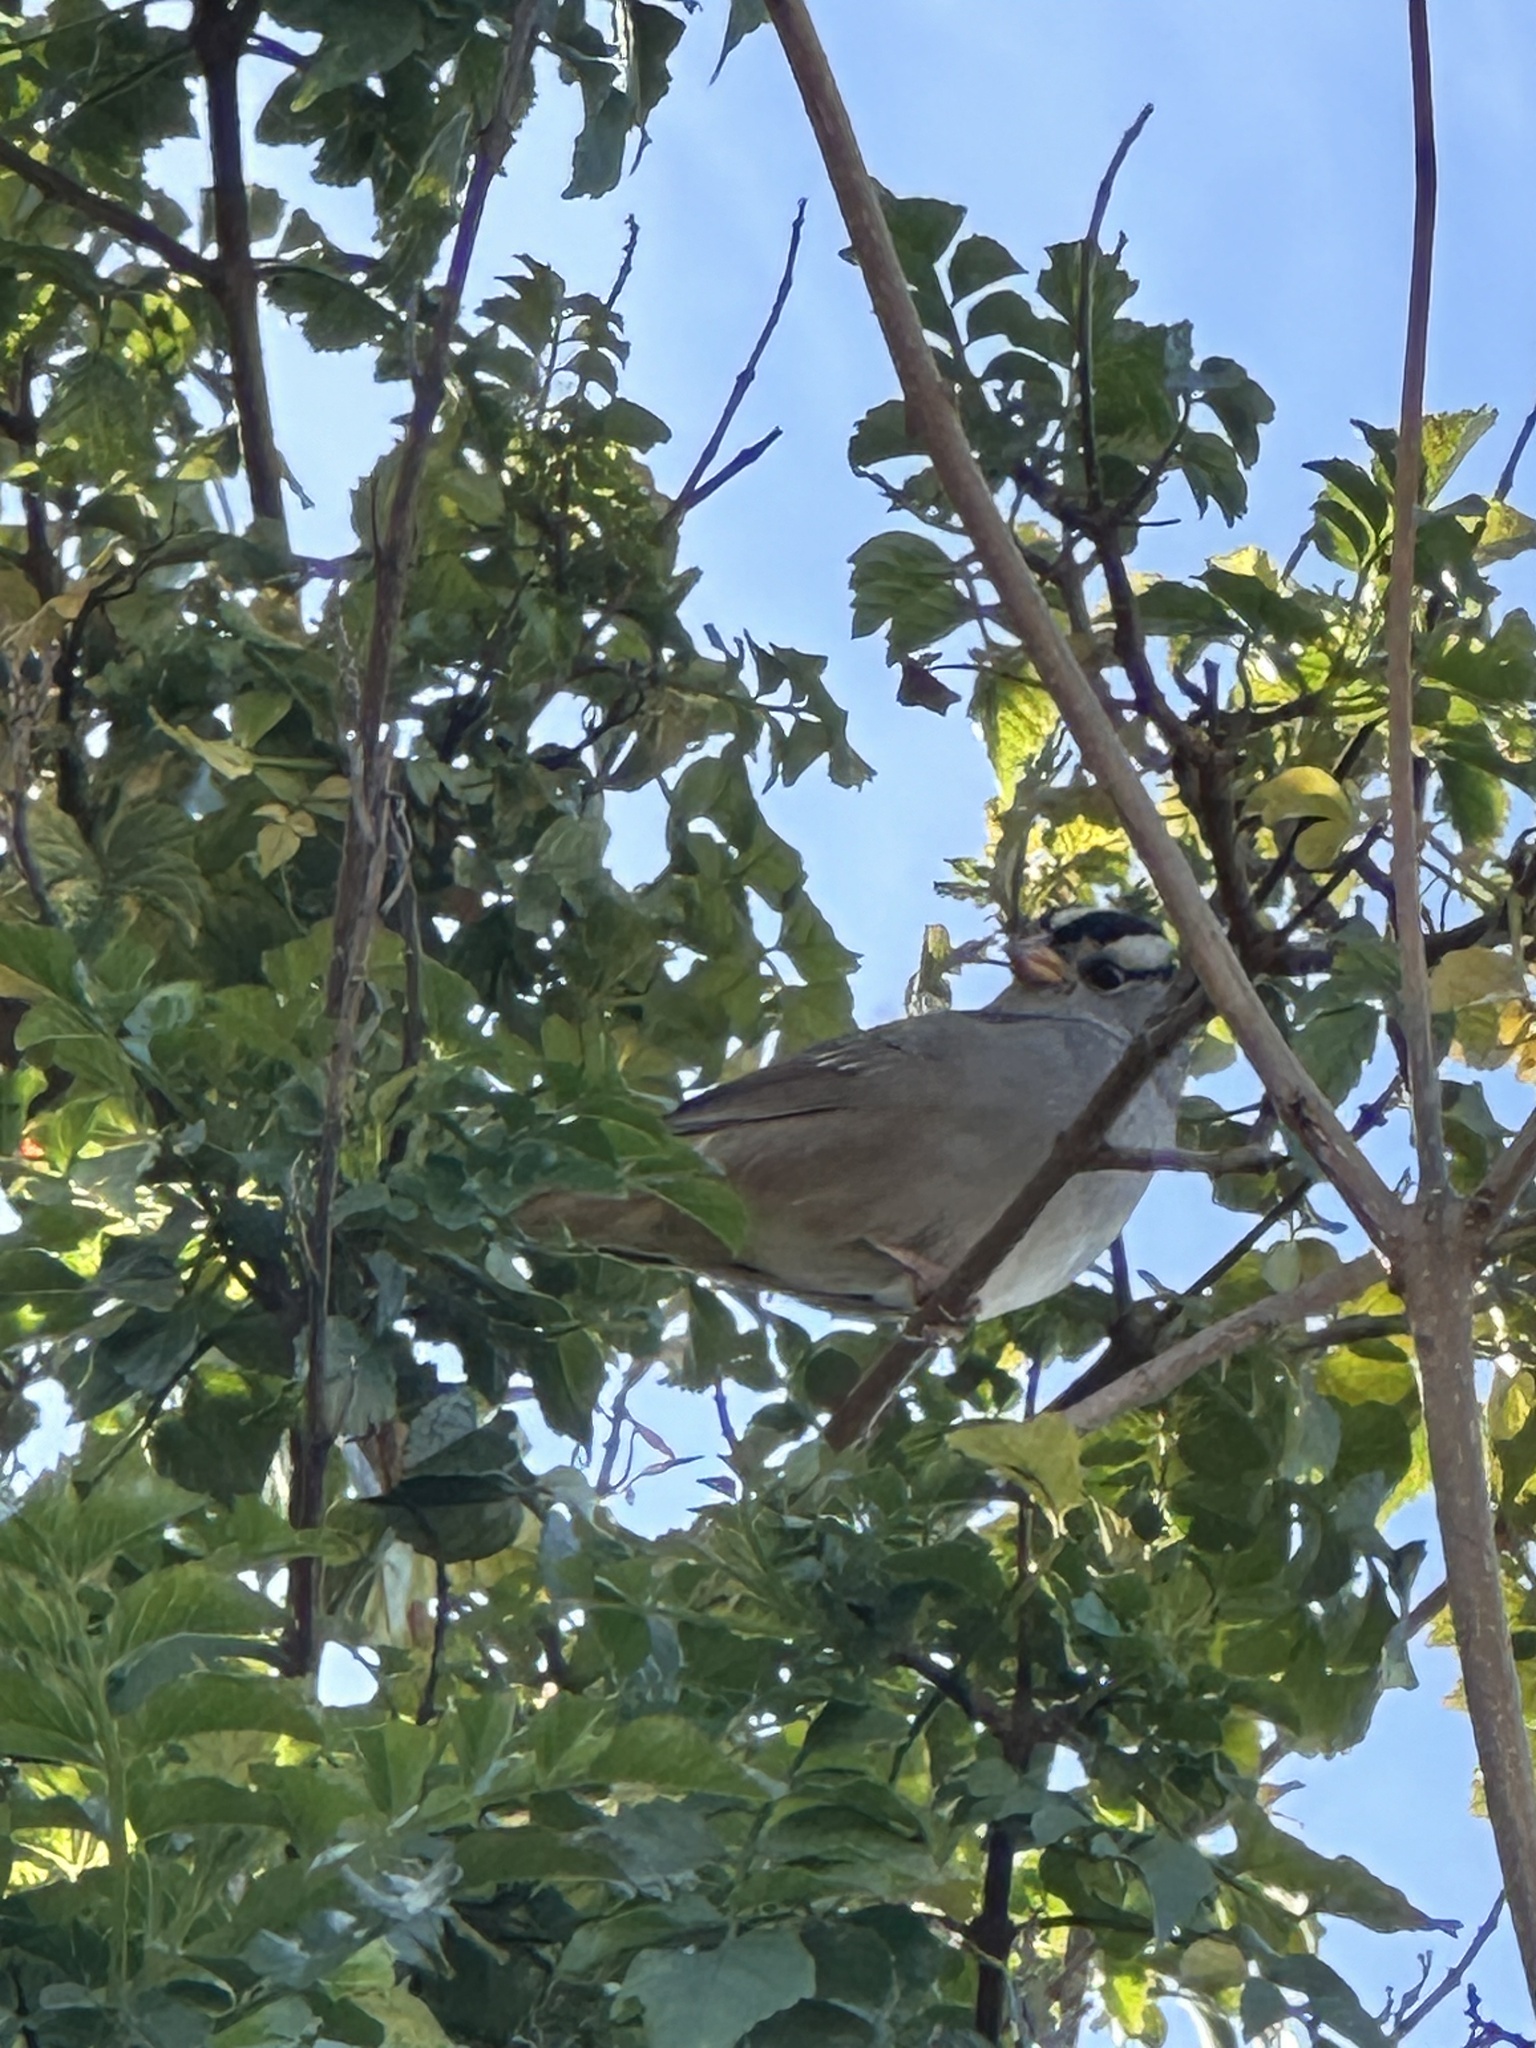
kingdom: Animalia
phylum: Chordata
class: Aves
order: Passeriformes
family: Passerellidae
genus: Zonotrichia
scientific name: Zonotrichia leucophrys
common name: White-crowned sparrow
